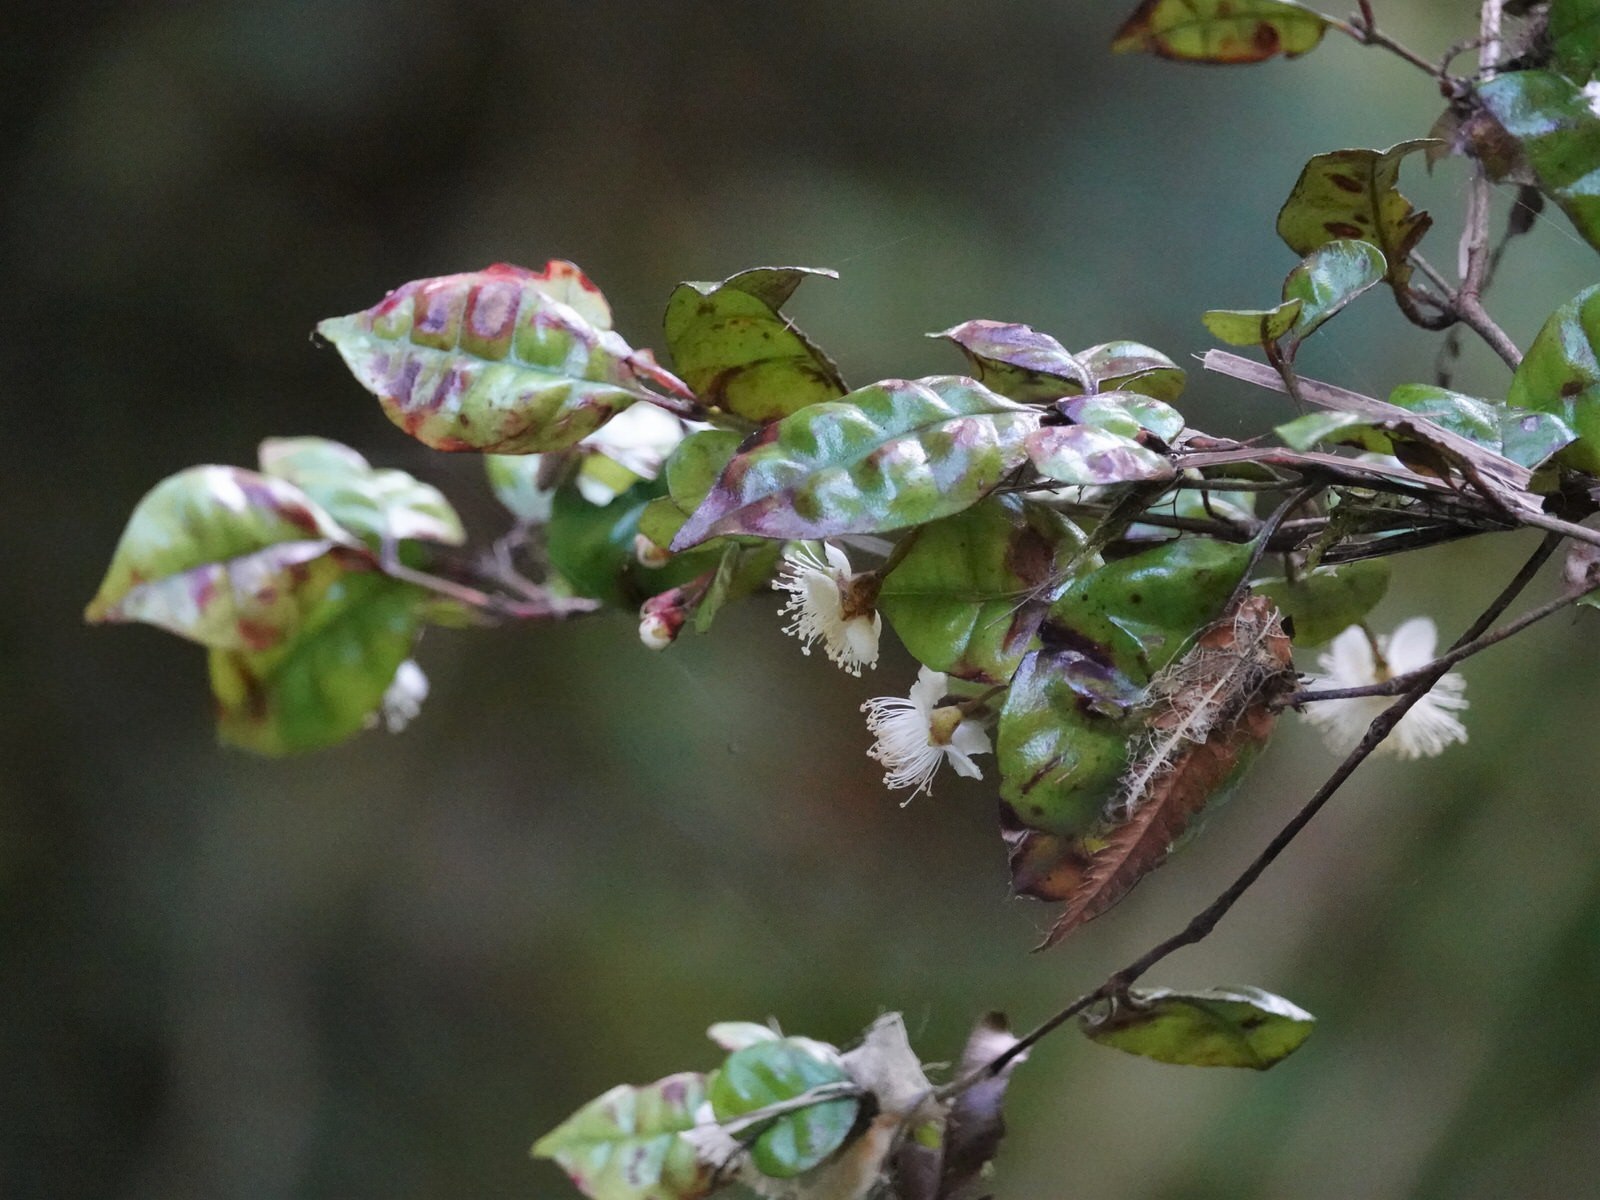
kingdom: Plantae
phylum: Tracheophyta
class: Magnoliopsida
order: Myrtales
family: Myrtaceae
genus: Lophomyrtus
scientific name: Lophomyrtus bullata
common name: Rama rama
